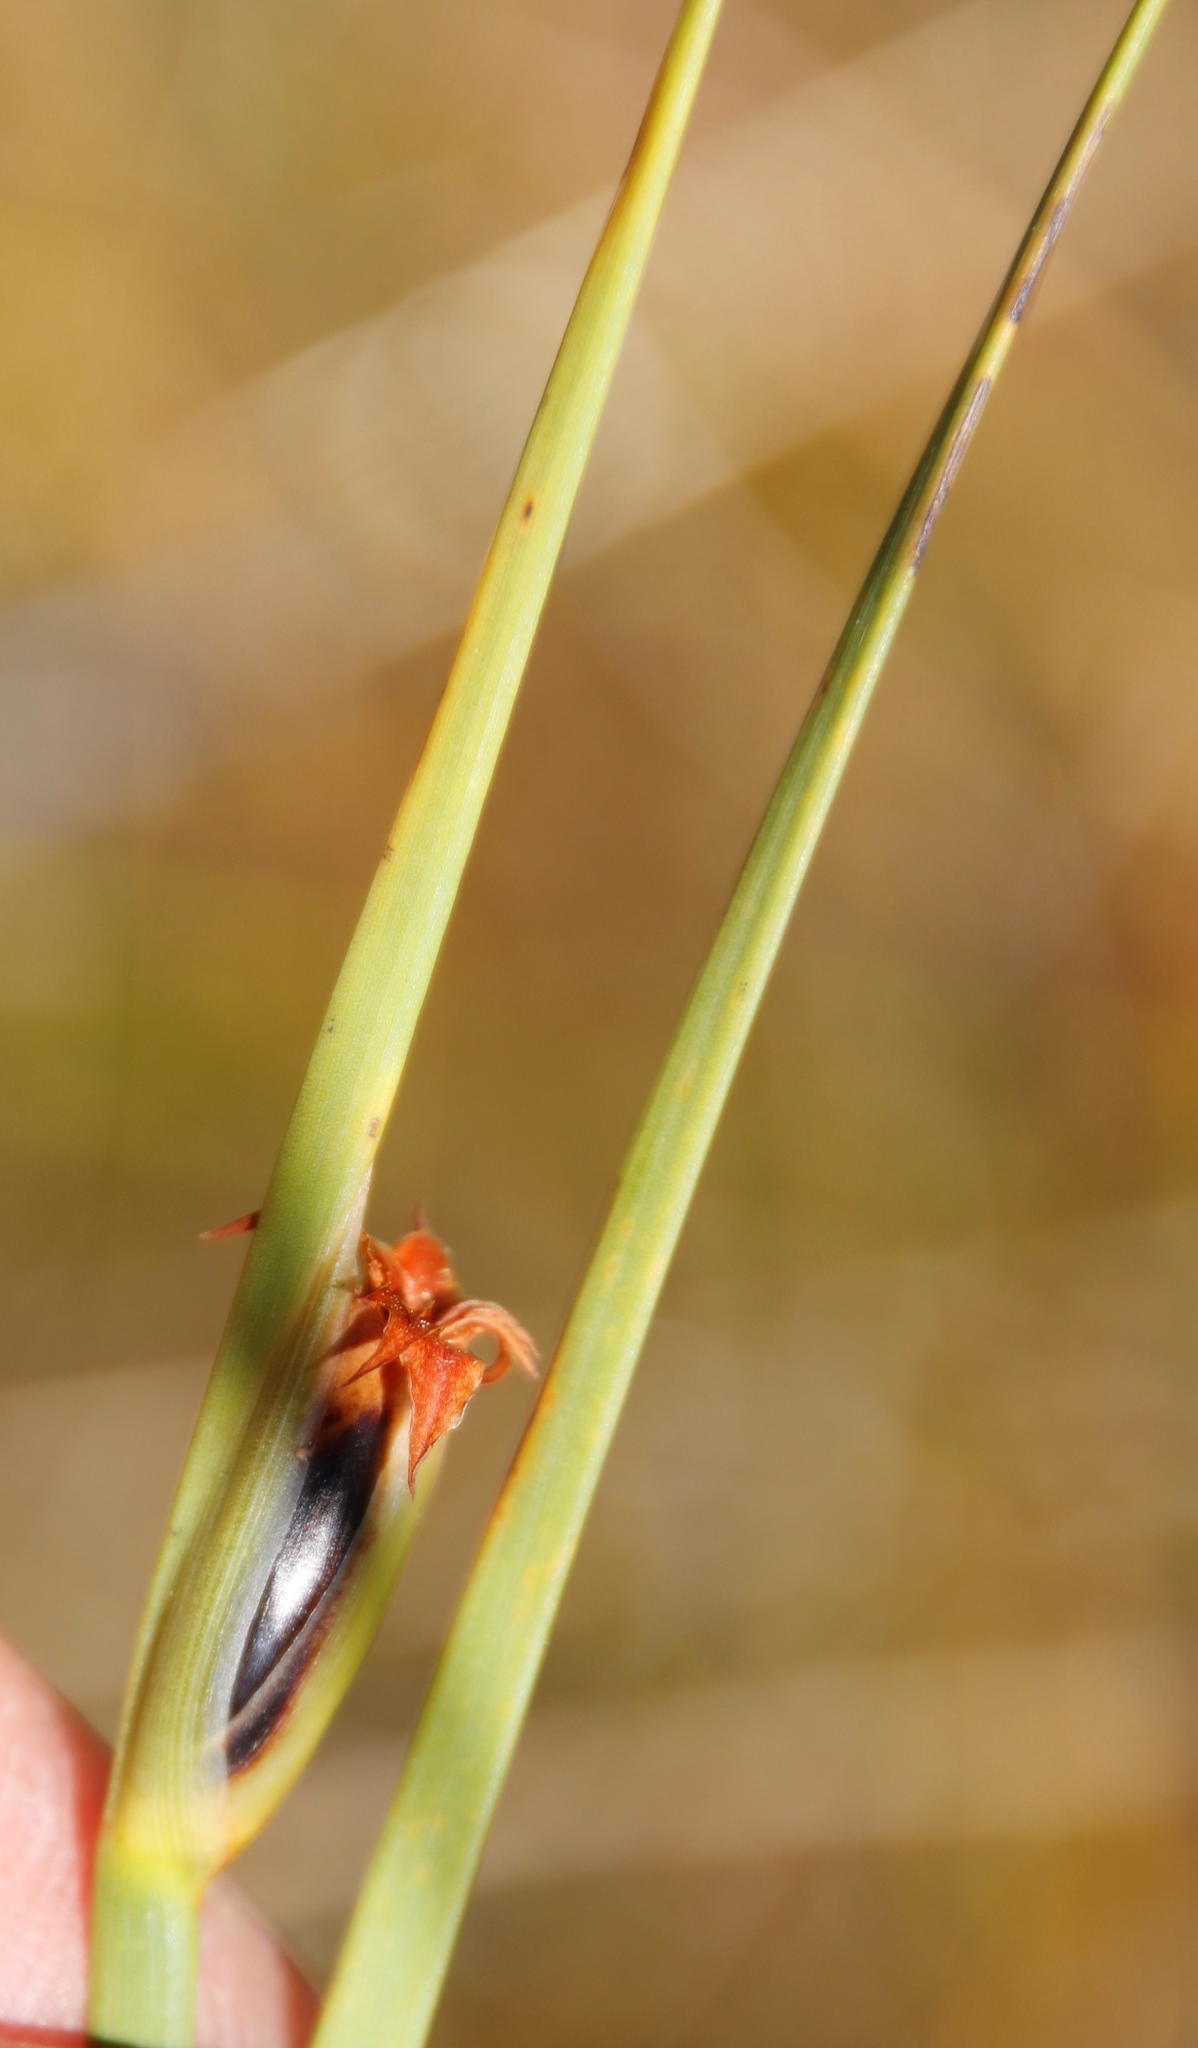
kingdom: Plantae
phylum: Tracheophyta
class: Liliopsida
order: Poales
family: Cyperaceae
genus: Chrysitrix
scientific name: Chrysitrix capensis
